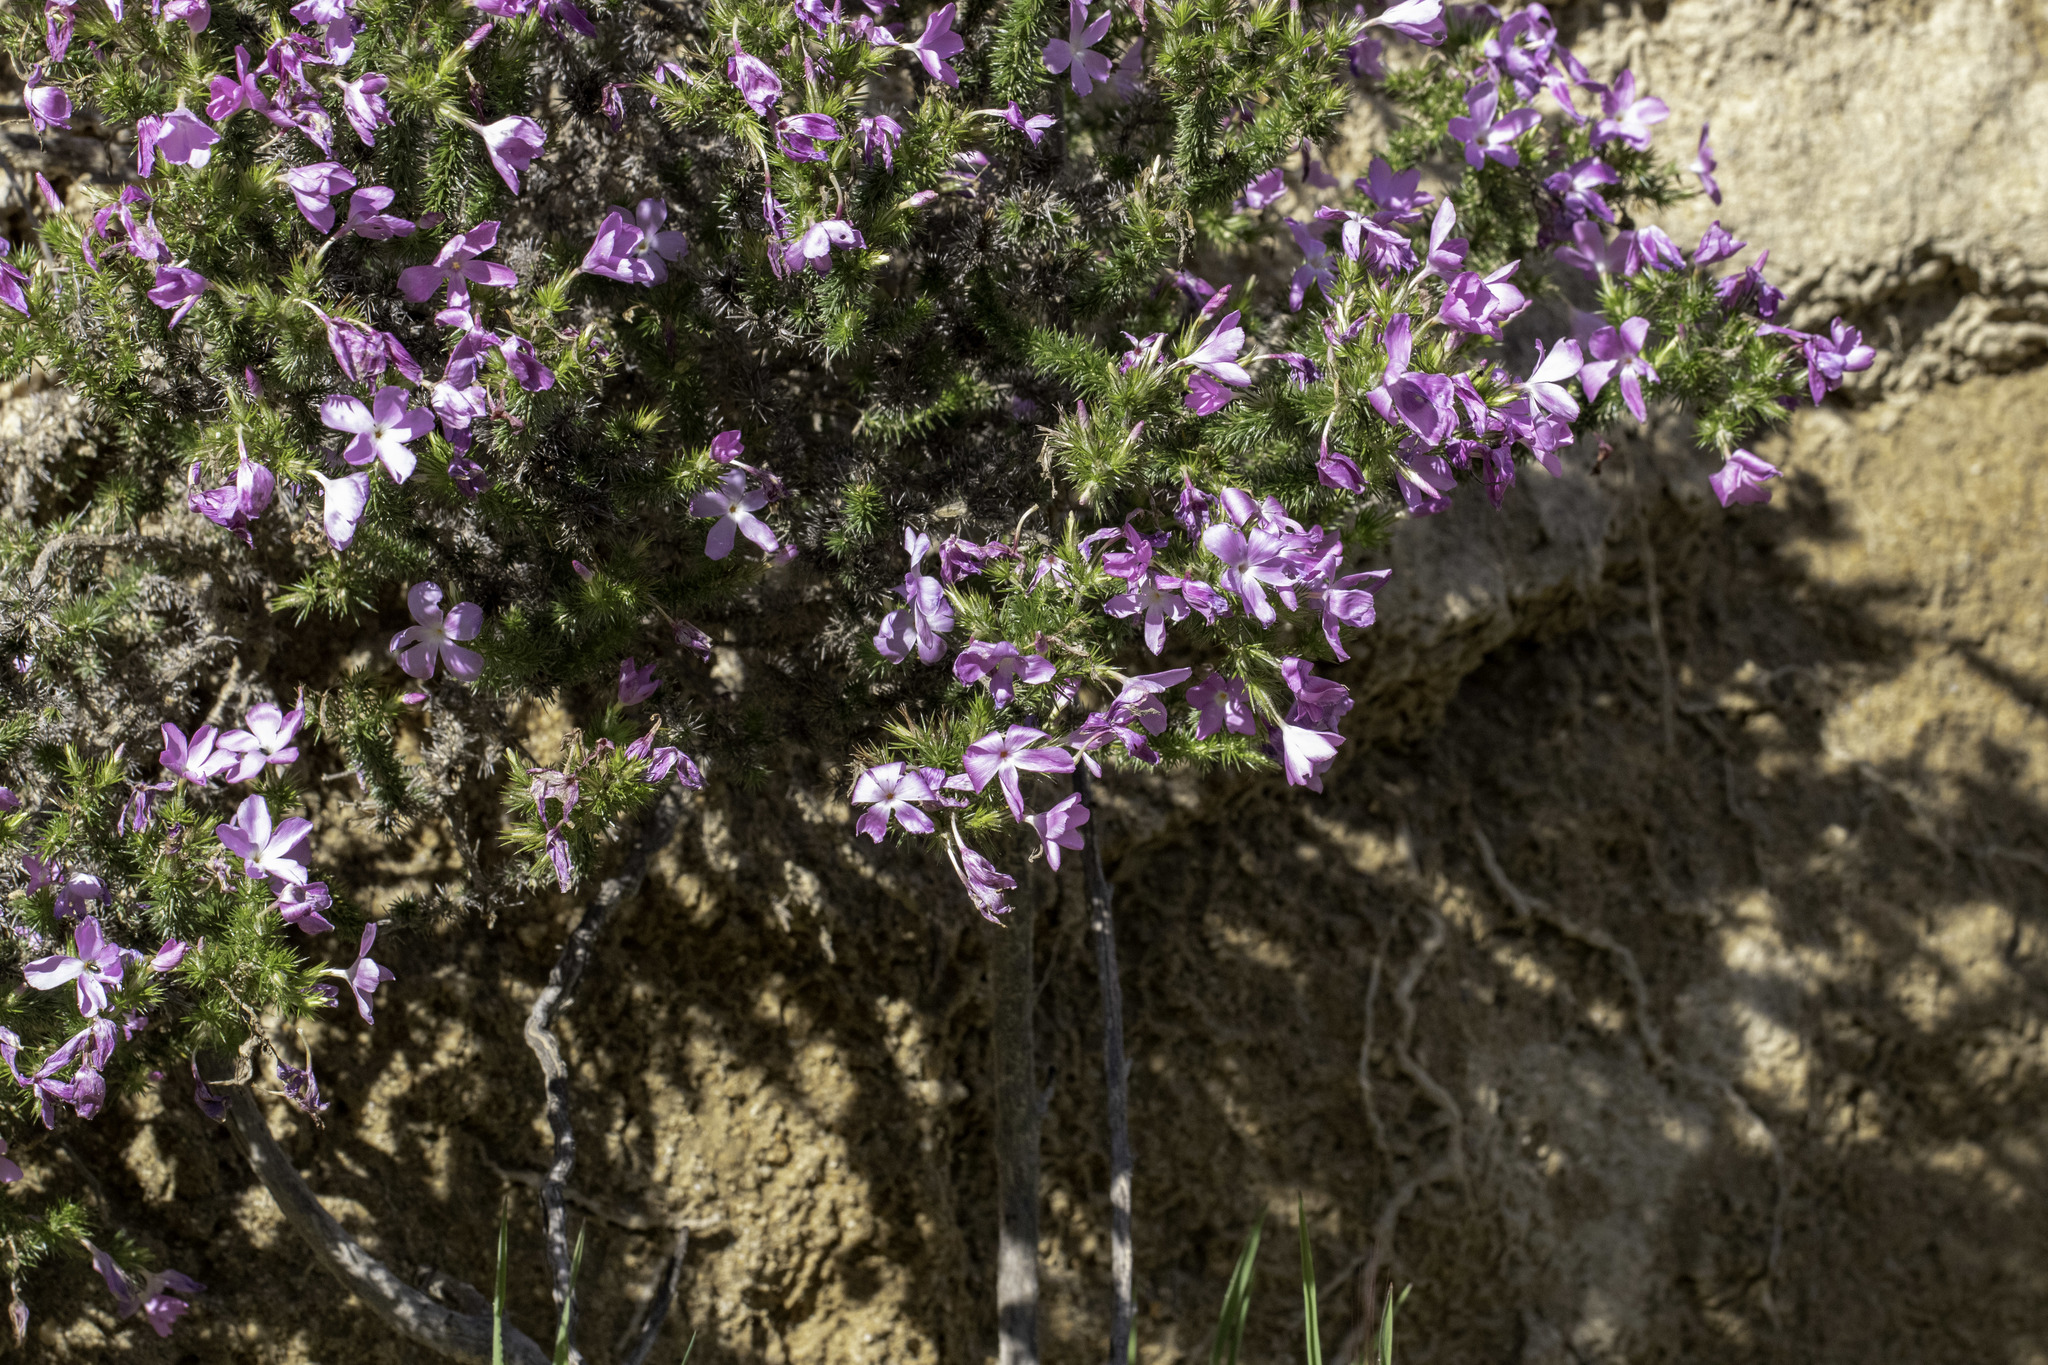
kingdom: Plantae
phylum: Tracheophyta
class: Magnoliopsida
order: Ericales
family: Polemoniaceae
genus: Linanthus
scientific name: Linanthus californicus
